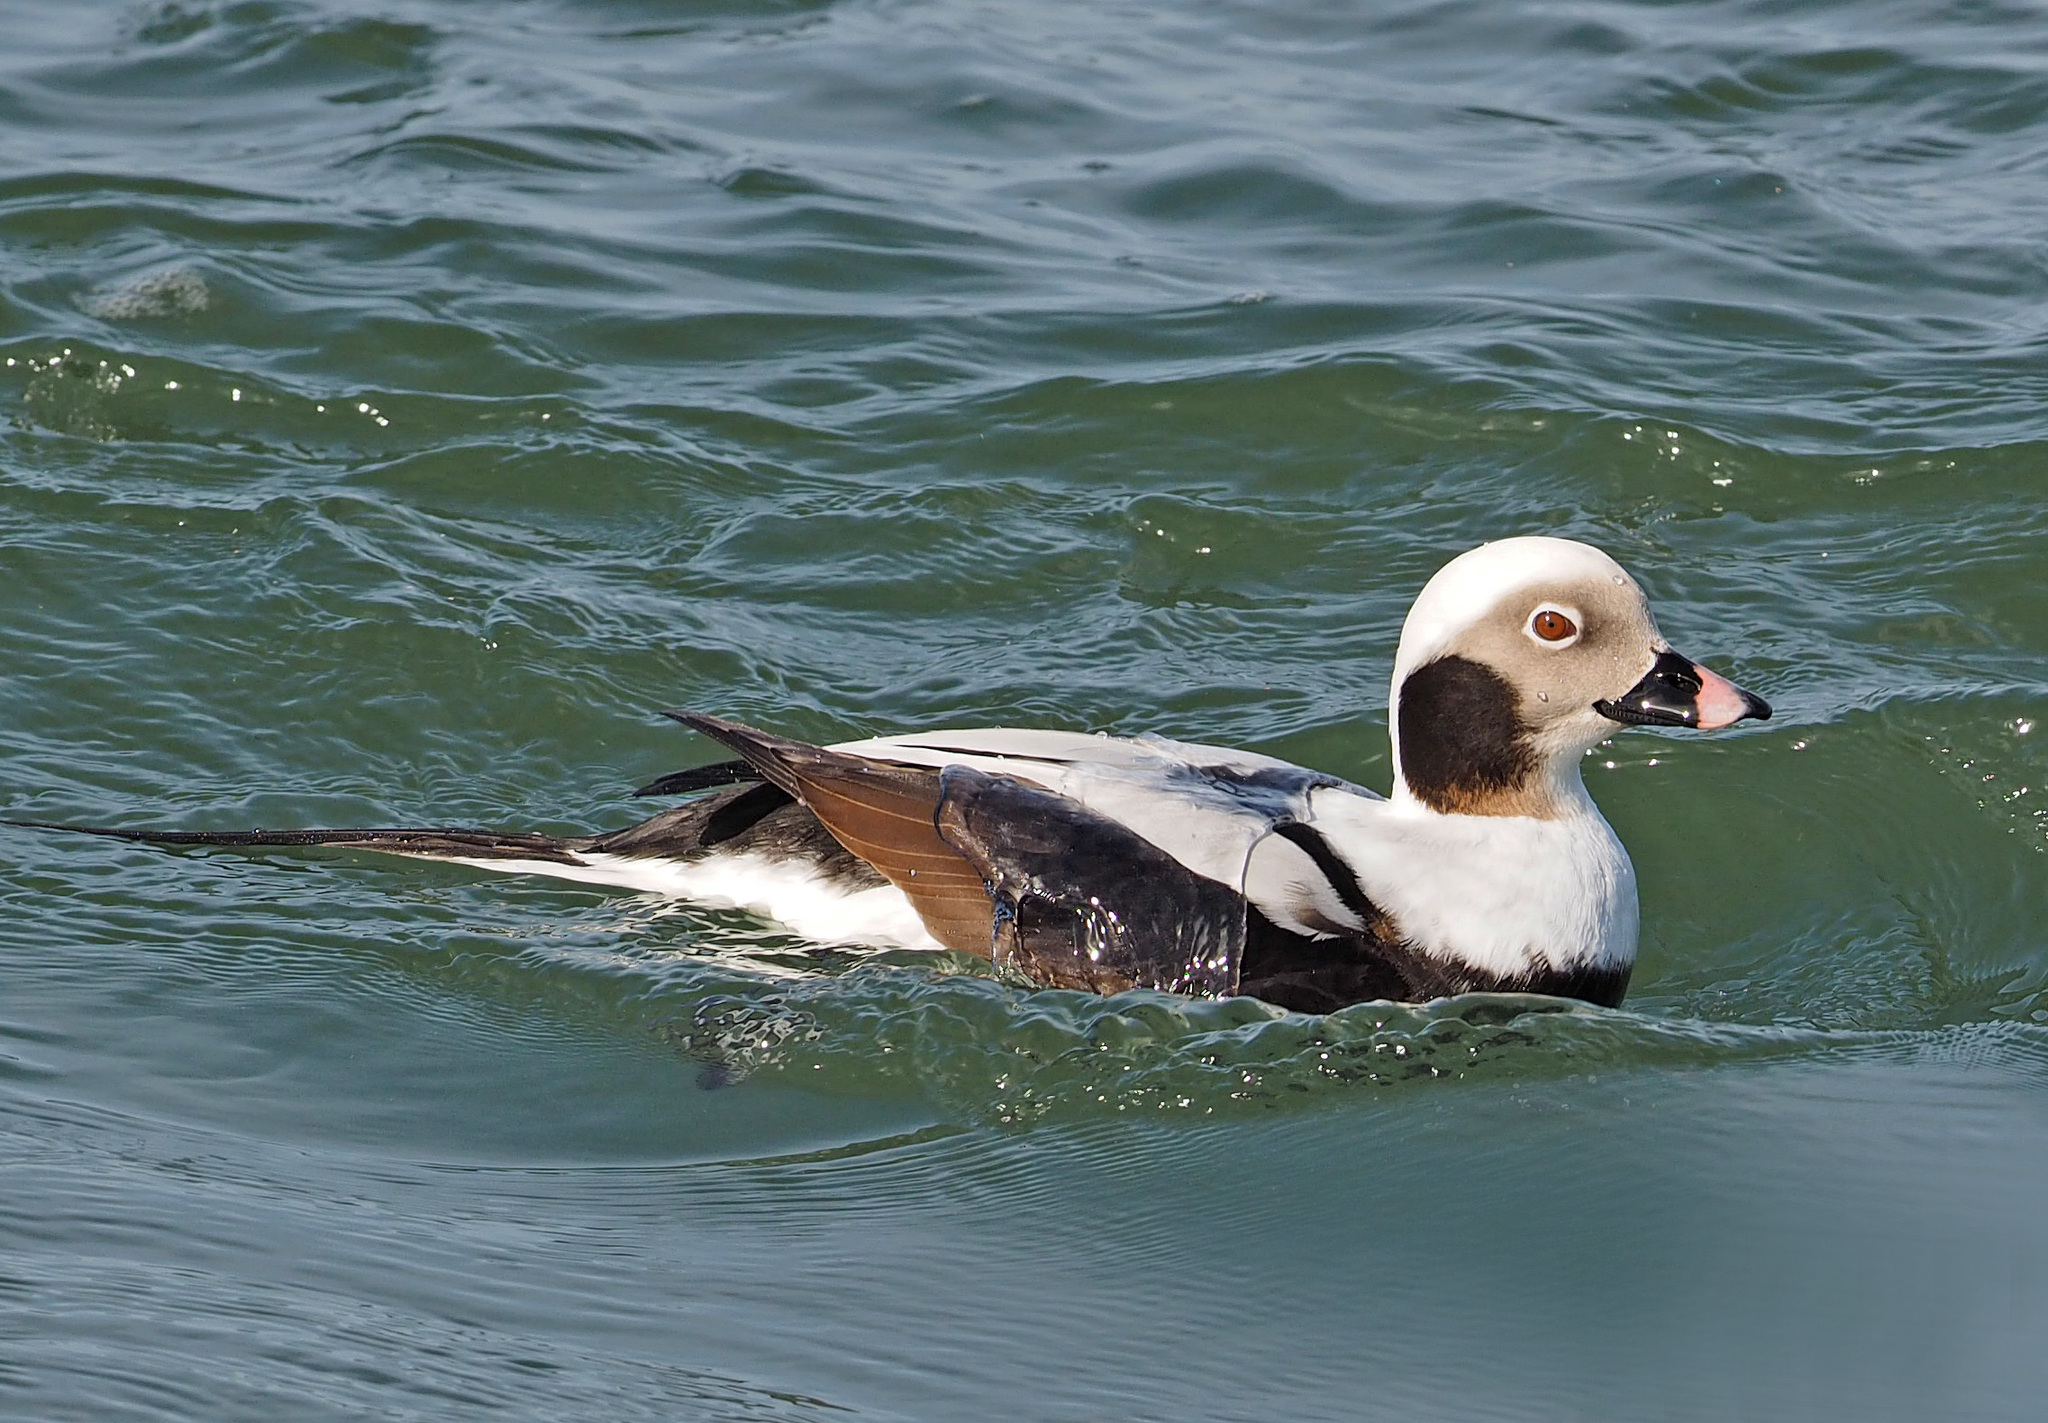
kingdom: Animalia
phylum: Chordata
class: Aves
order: Anseriformes
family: Anatidae
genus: Clangula
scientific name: Clangula hyemalis
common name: Long-tailed duck
